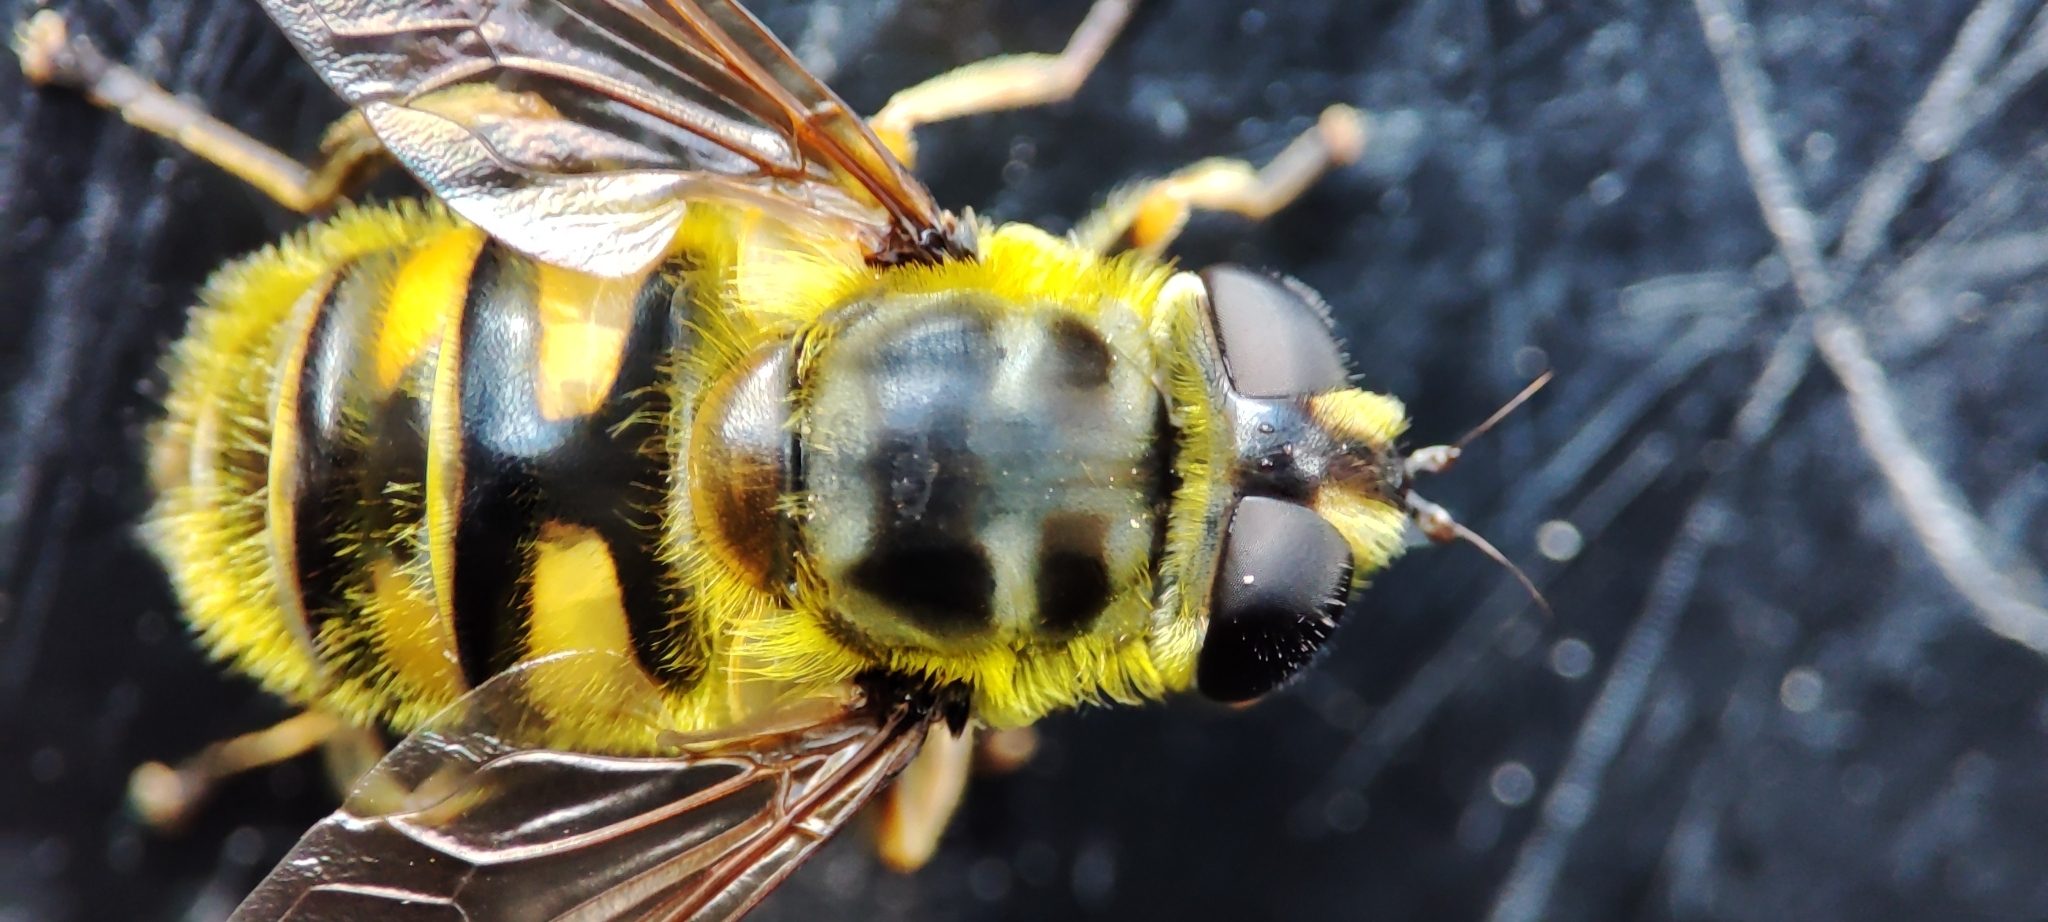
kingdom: Animalia
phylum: Arthropoda
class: Insecta
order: Diptera
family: Syrphidae
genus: Myathropa
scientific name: Myathropa florea
